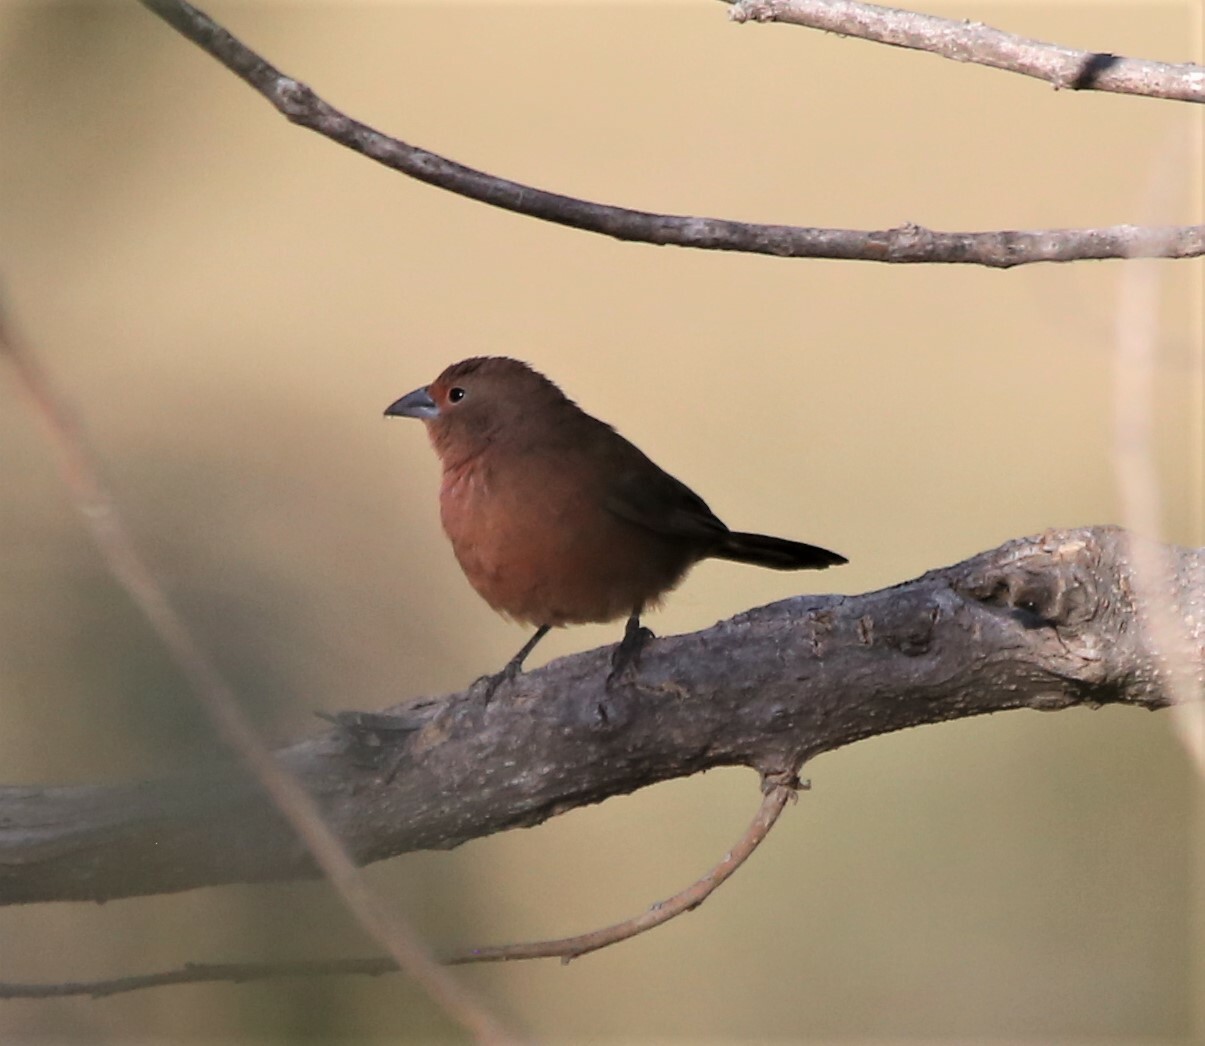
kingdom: Animalia
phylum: Chordata
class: Aves
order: Passeriformes
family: Estrildidae
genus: Lagonosticta
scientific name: Lagonosticta rhodopareia
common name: Jameson's firefinch
